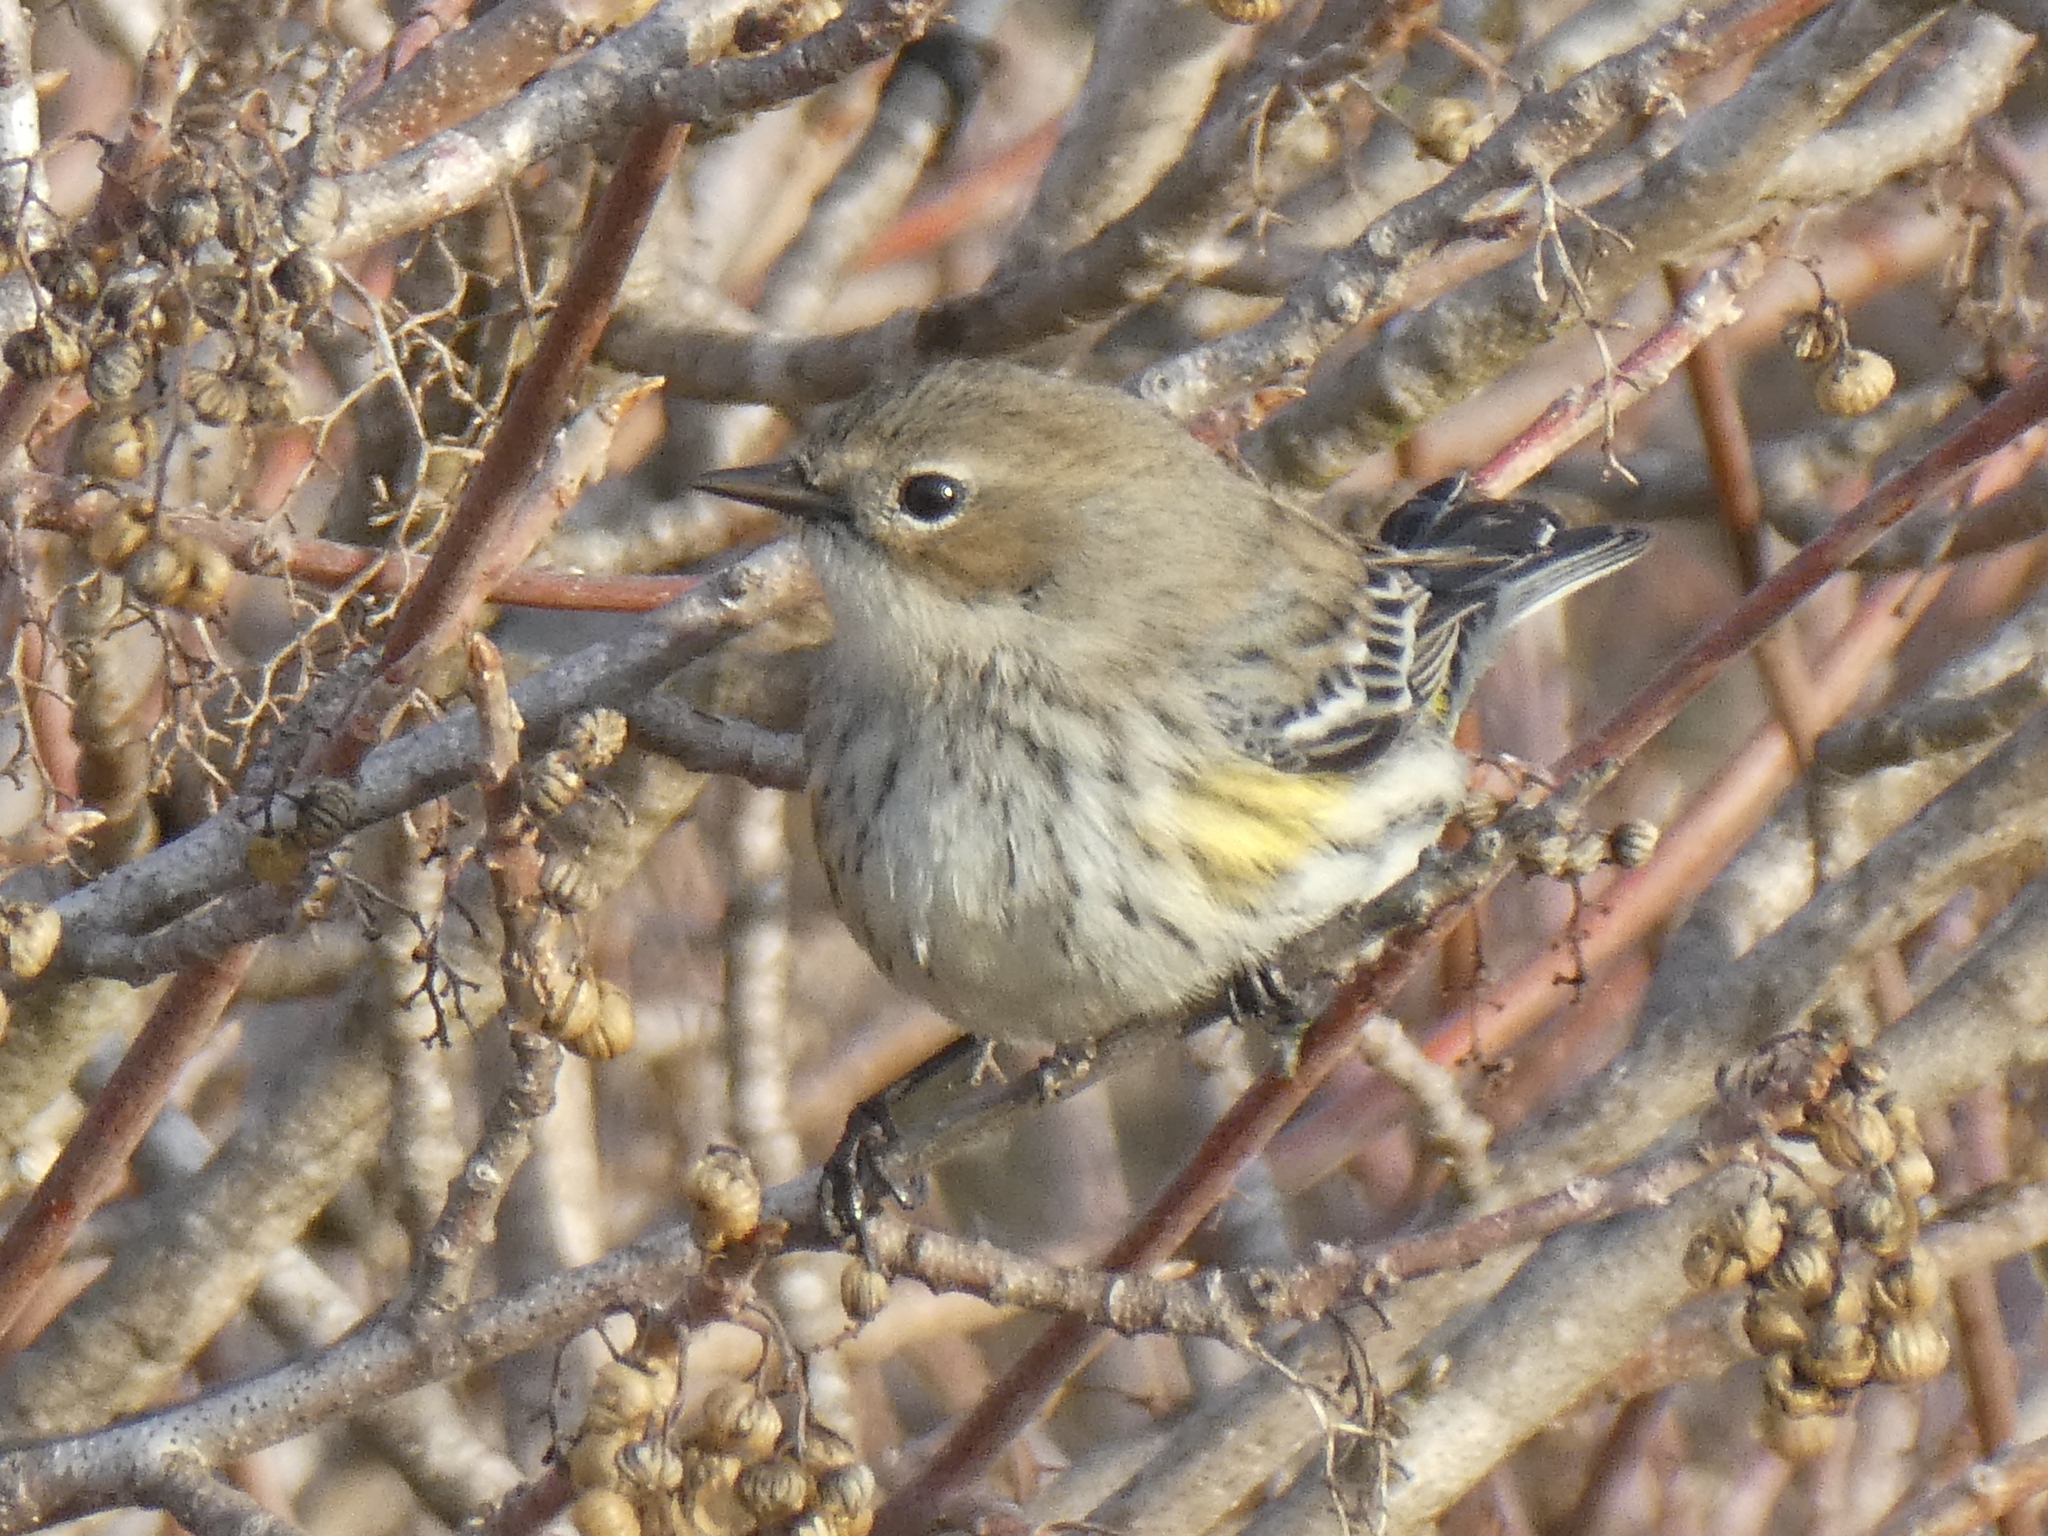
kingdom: Animalia
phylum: Chordata
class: Aves
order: Passeriformes
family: Parulidae
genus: Setophaga
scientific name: Setophaga coronata
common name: Myrtle warbler
